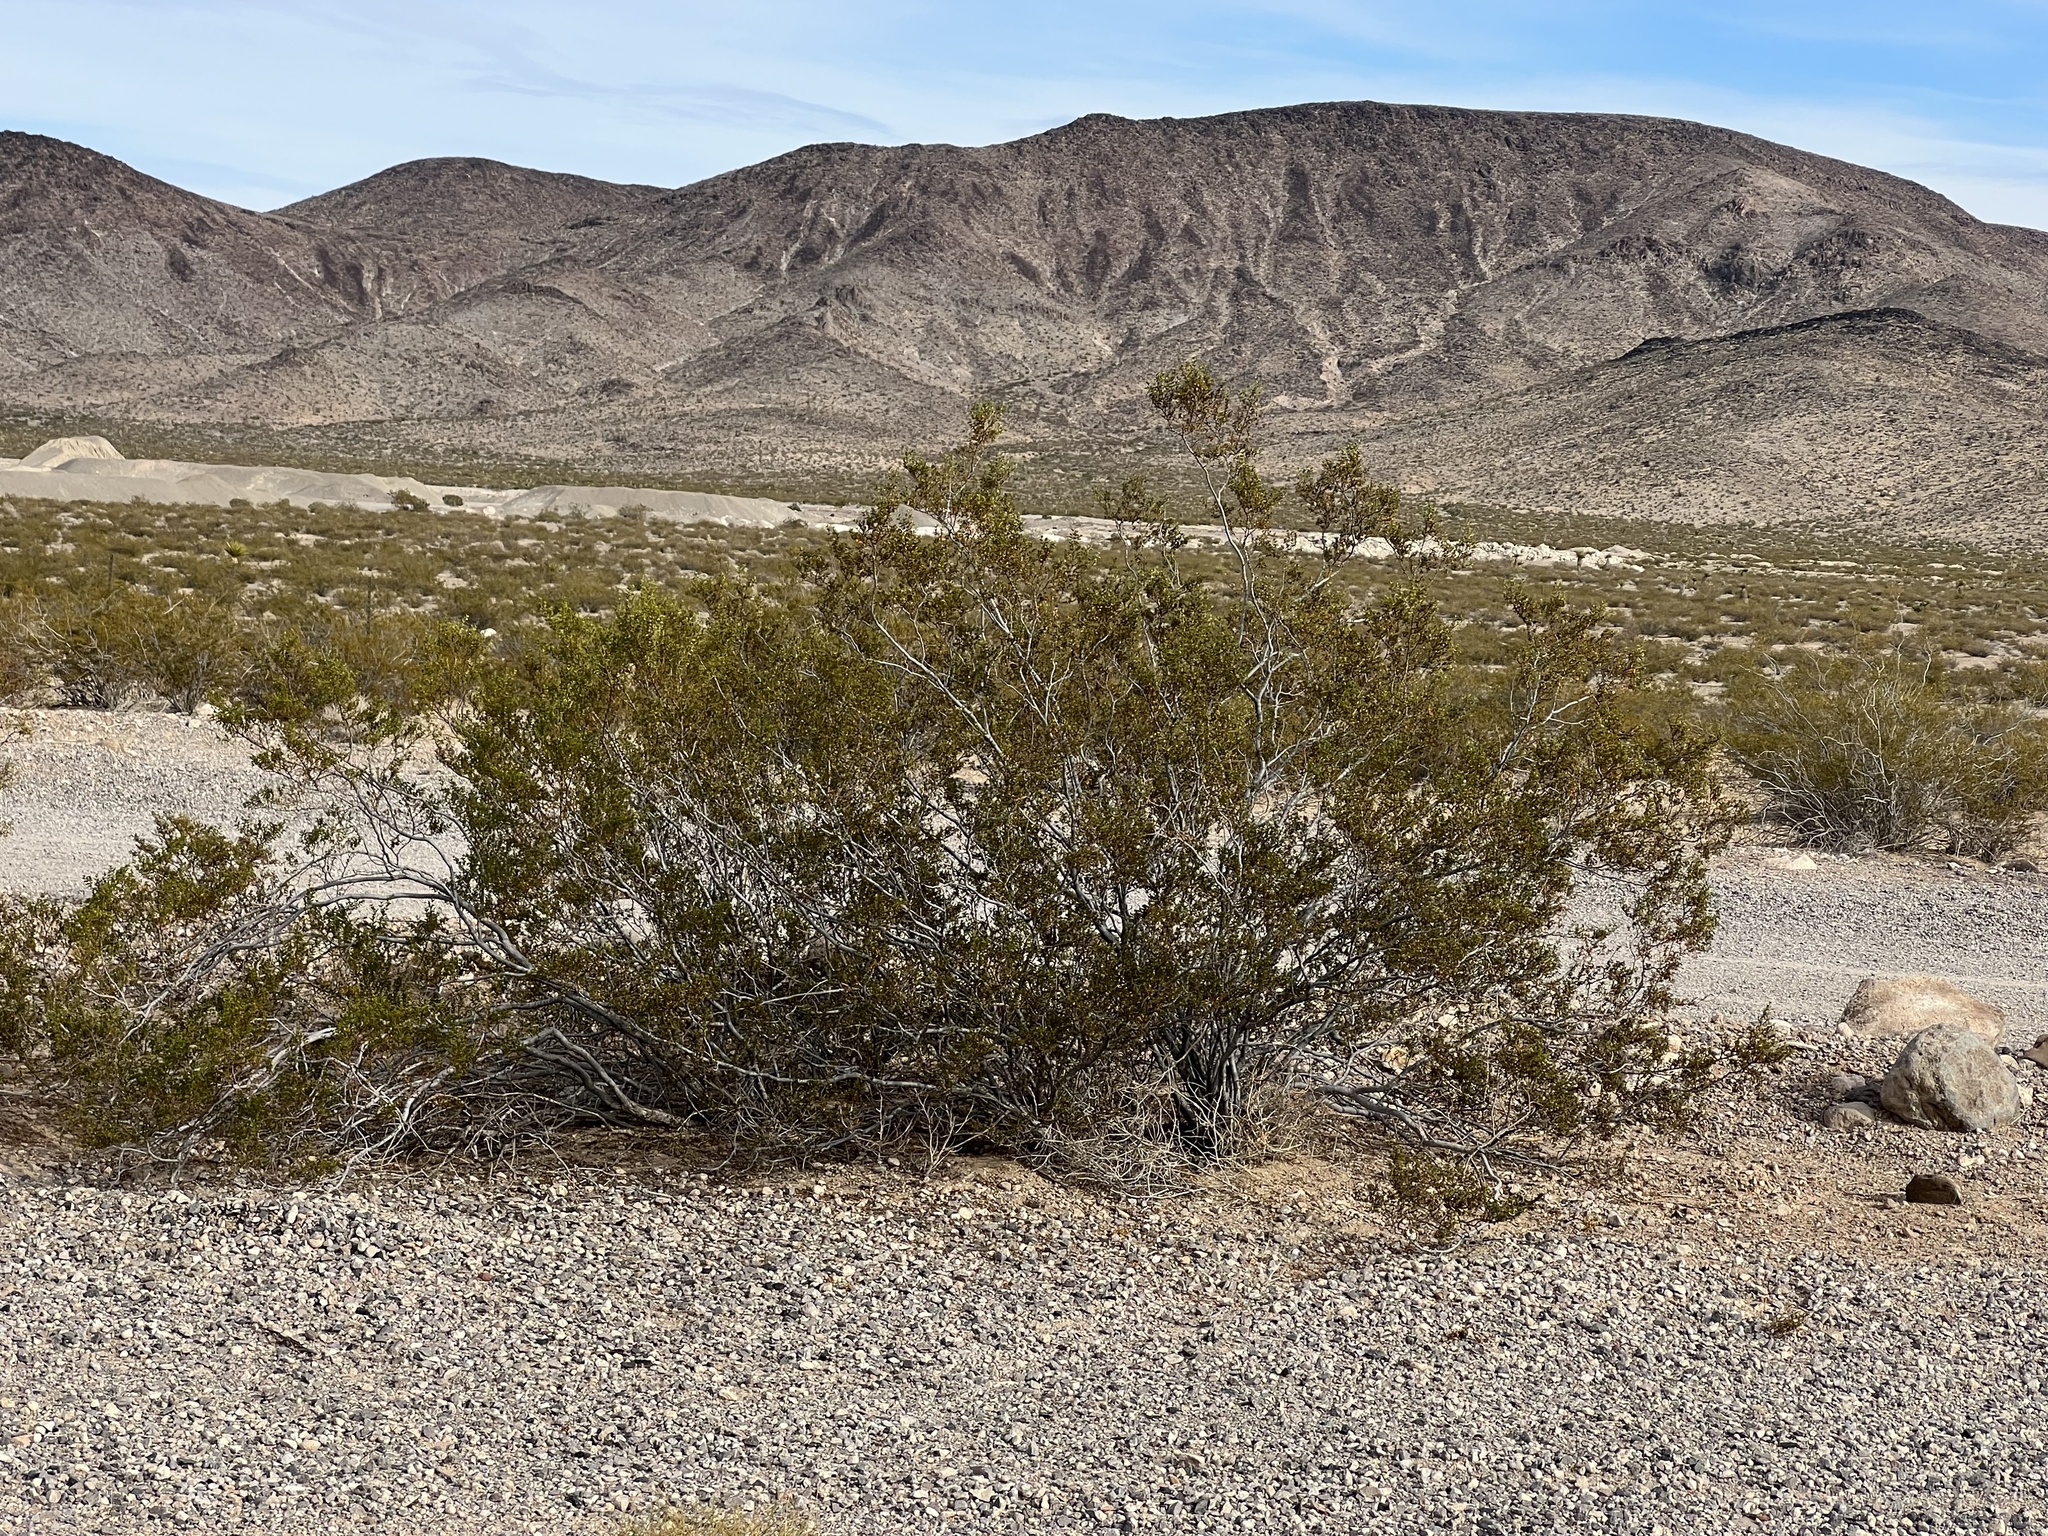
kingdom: Plantae
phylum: Tracheophyta
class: Magnoliopsida
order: Zygophyllales
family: Zygophyllaceae
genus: Larrea
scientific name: Larrea tridentata
